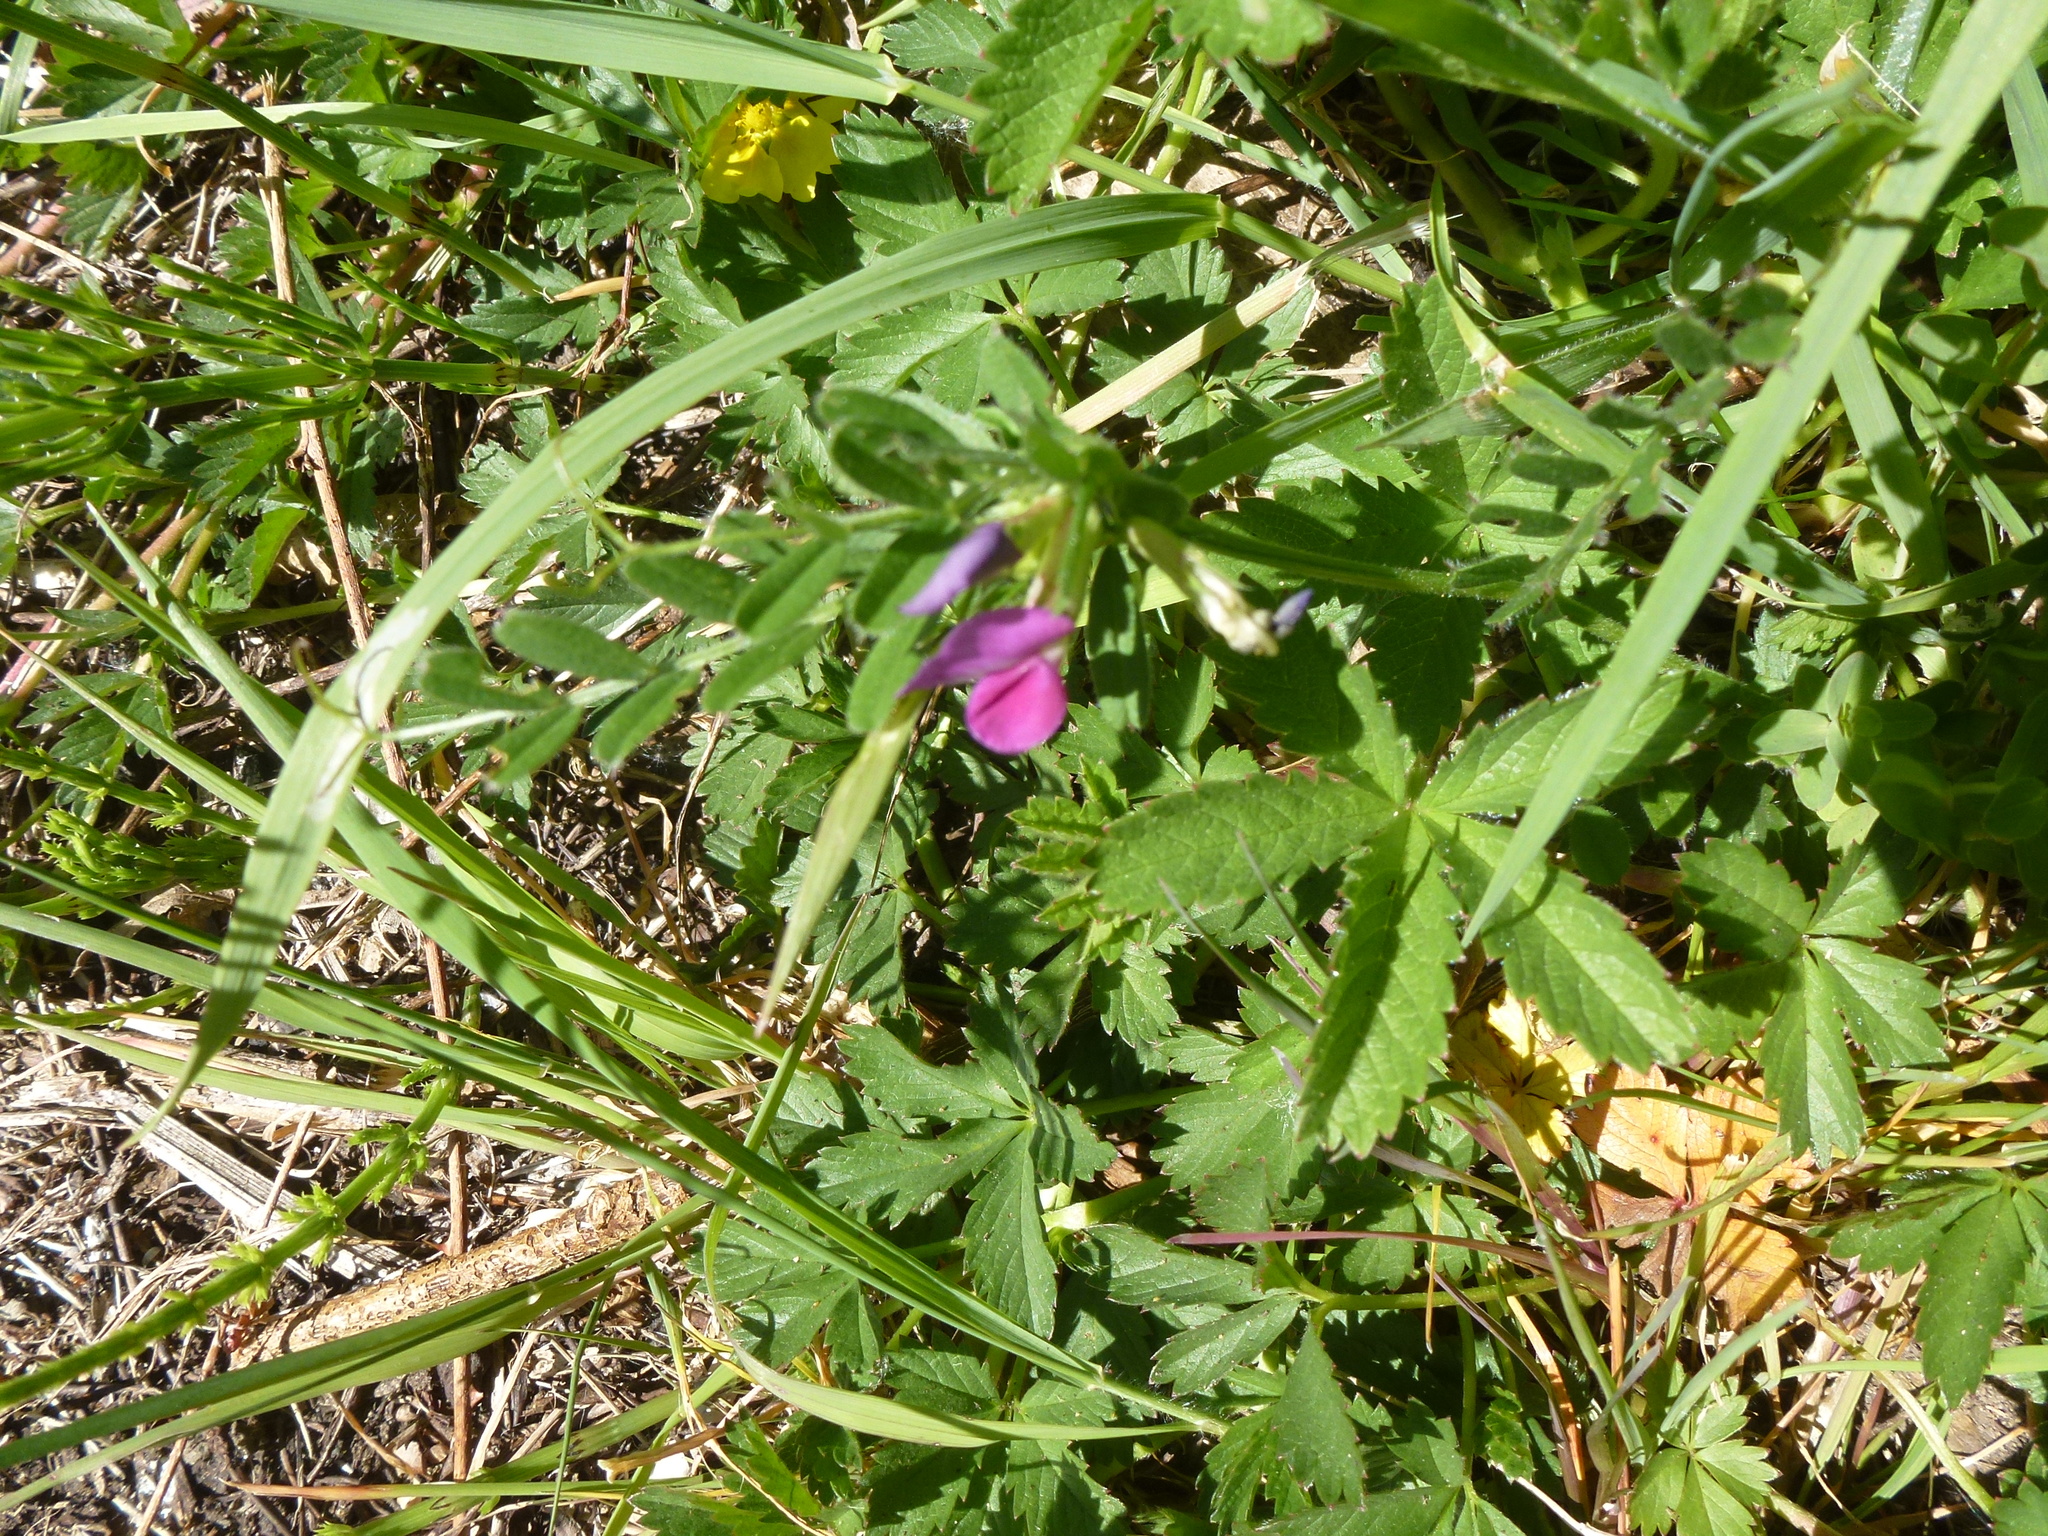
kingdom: Plantae
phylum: Tracheophyta
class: Magnoliopsida
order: Fabales
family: Fabaceae
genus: Vicia
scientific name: Vicia sativa
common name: Garden vetch
